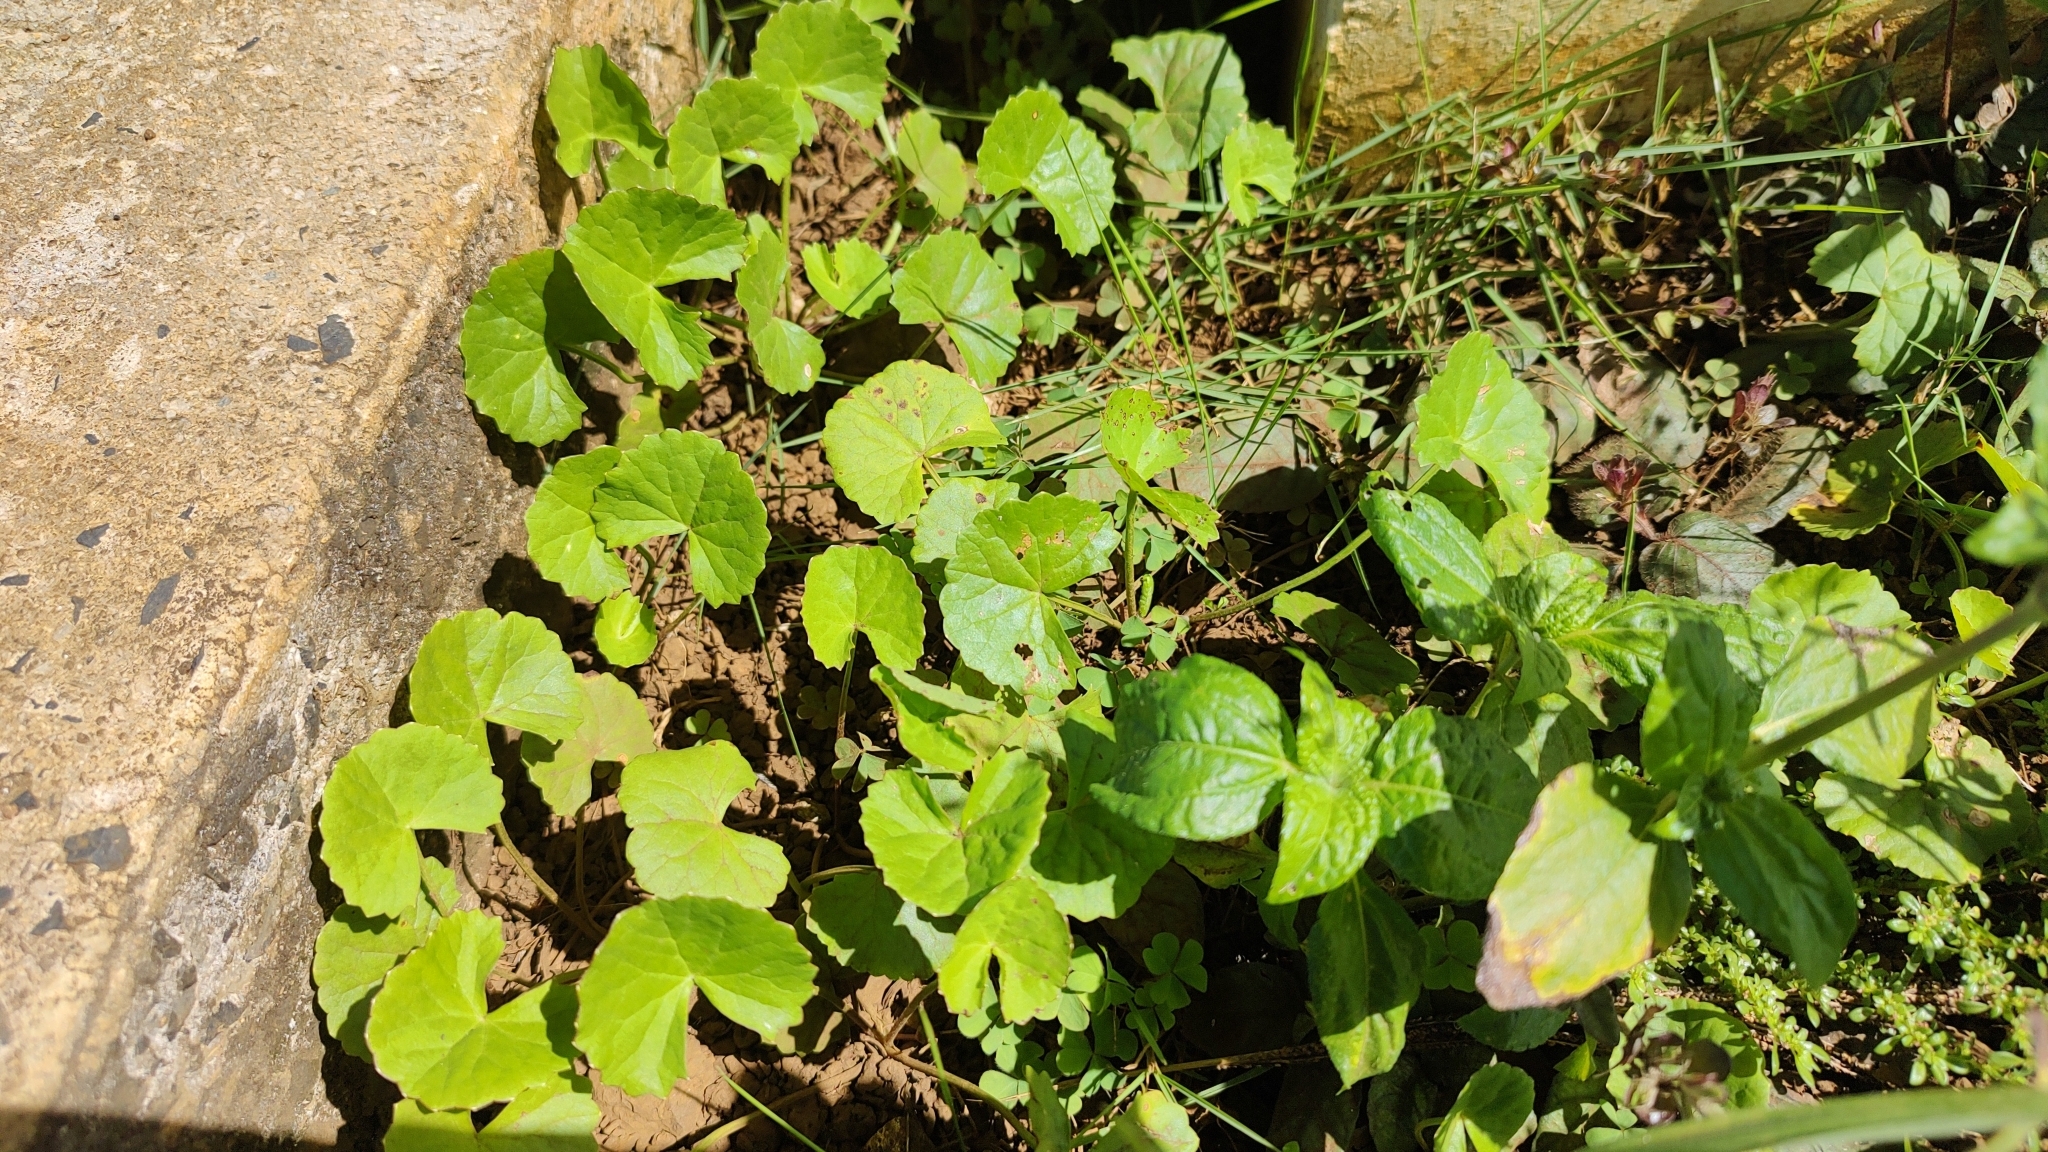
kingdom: Plantae
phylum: Tracheophyta
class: Magnoliopsida
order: Apiales
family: Apiaceae
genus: Centella
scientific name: Centella asiatica
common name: Spadeleaf
